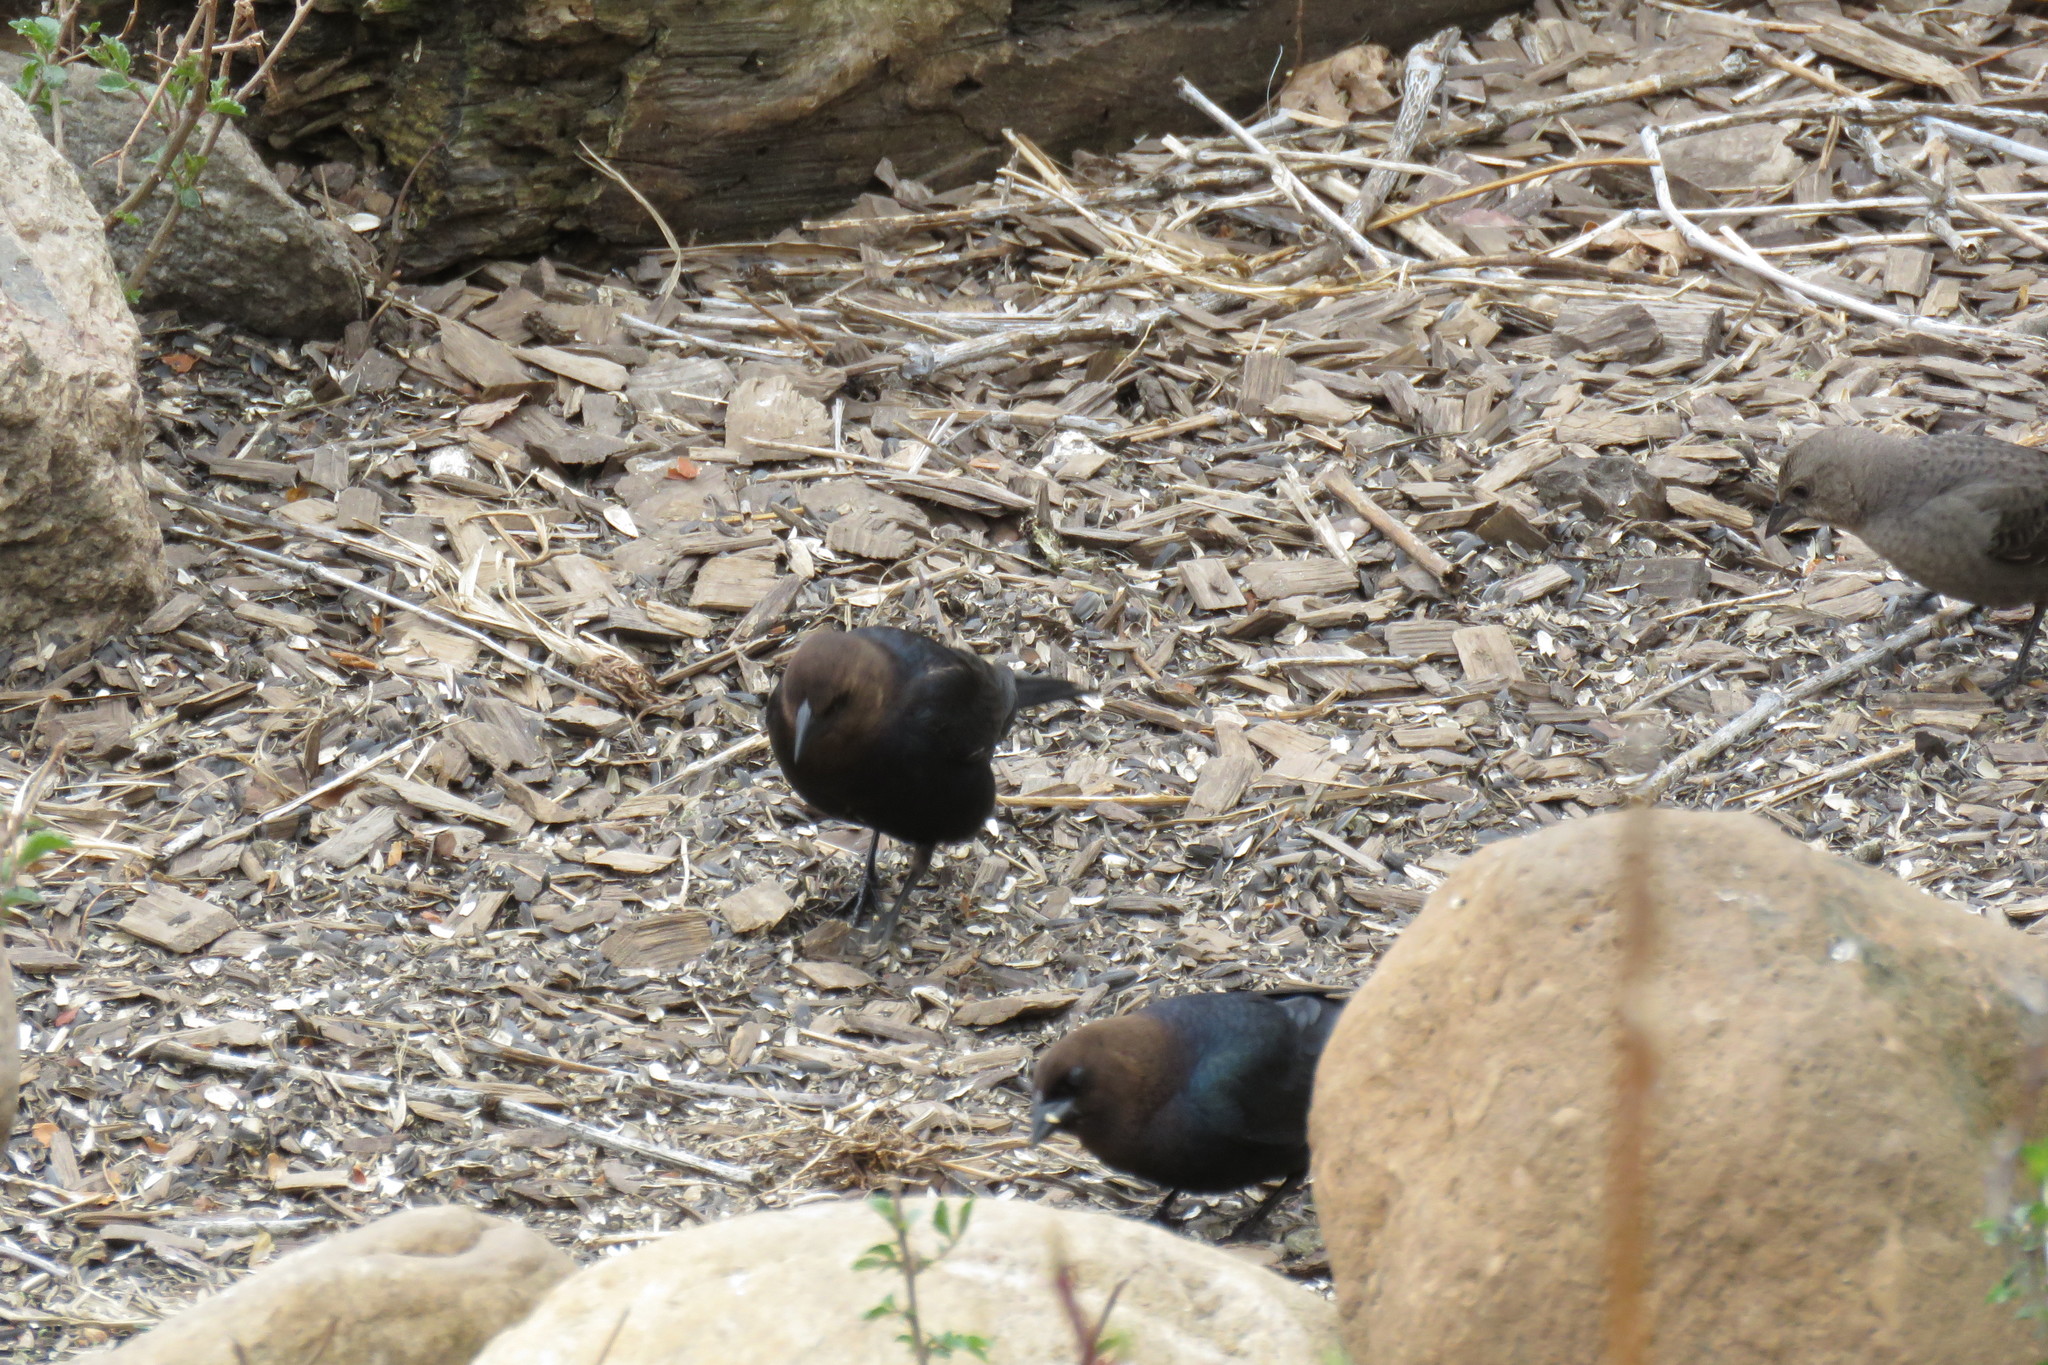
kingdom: Animalia
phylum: Chordata
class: Aves
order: Passeriformes
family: Icteridae
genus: Molothrus
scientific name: Molothrus ater
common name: Brown-headed cowbird
